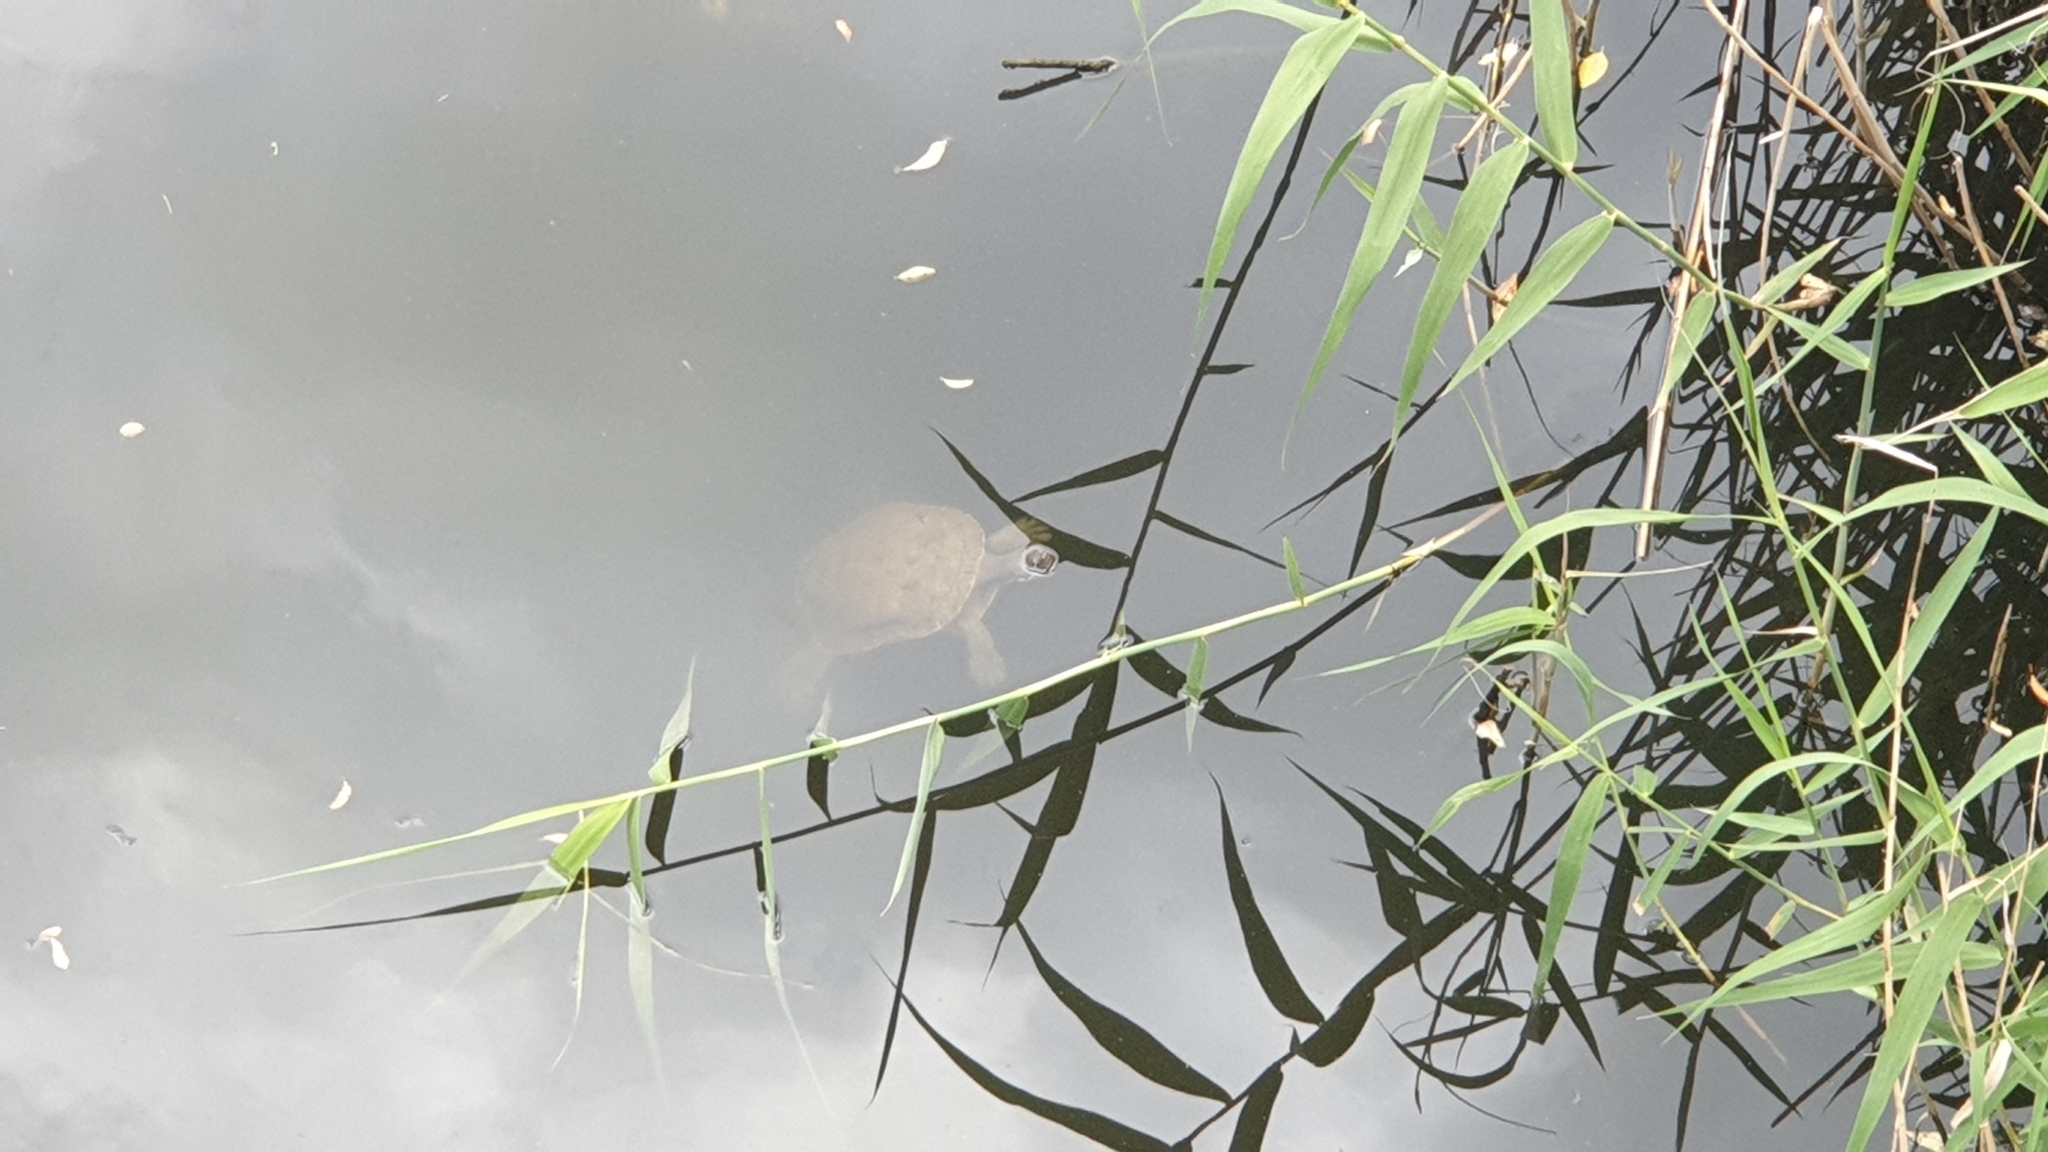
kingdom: Animalia
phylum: Chordata
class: Testudines
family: Chelidae
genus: Emydura
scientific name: Emydura macquarii
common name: Murray river turtle
